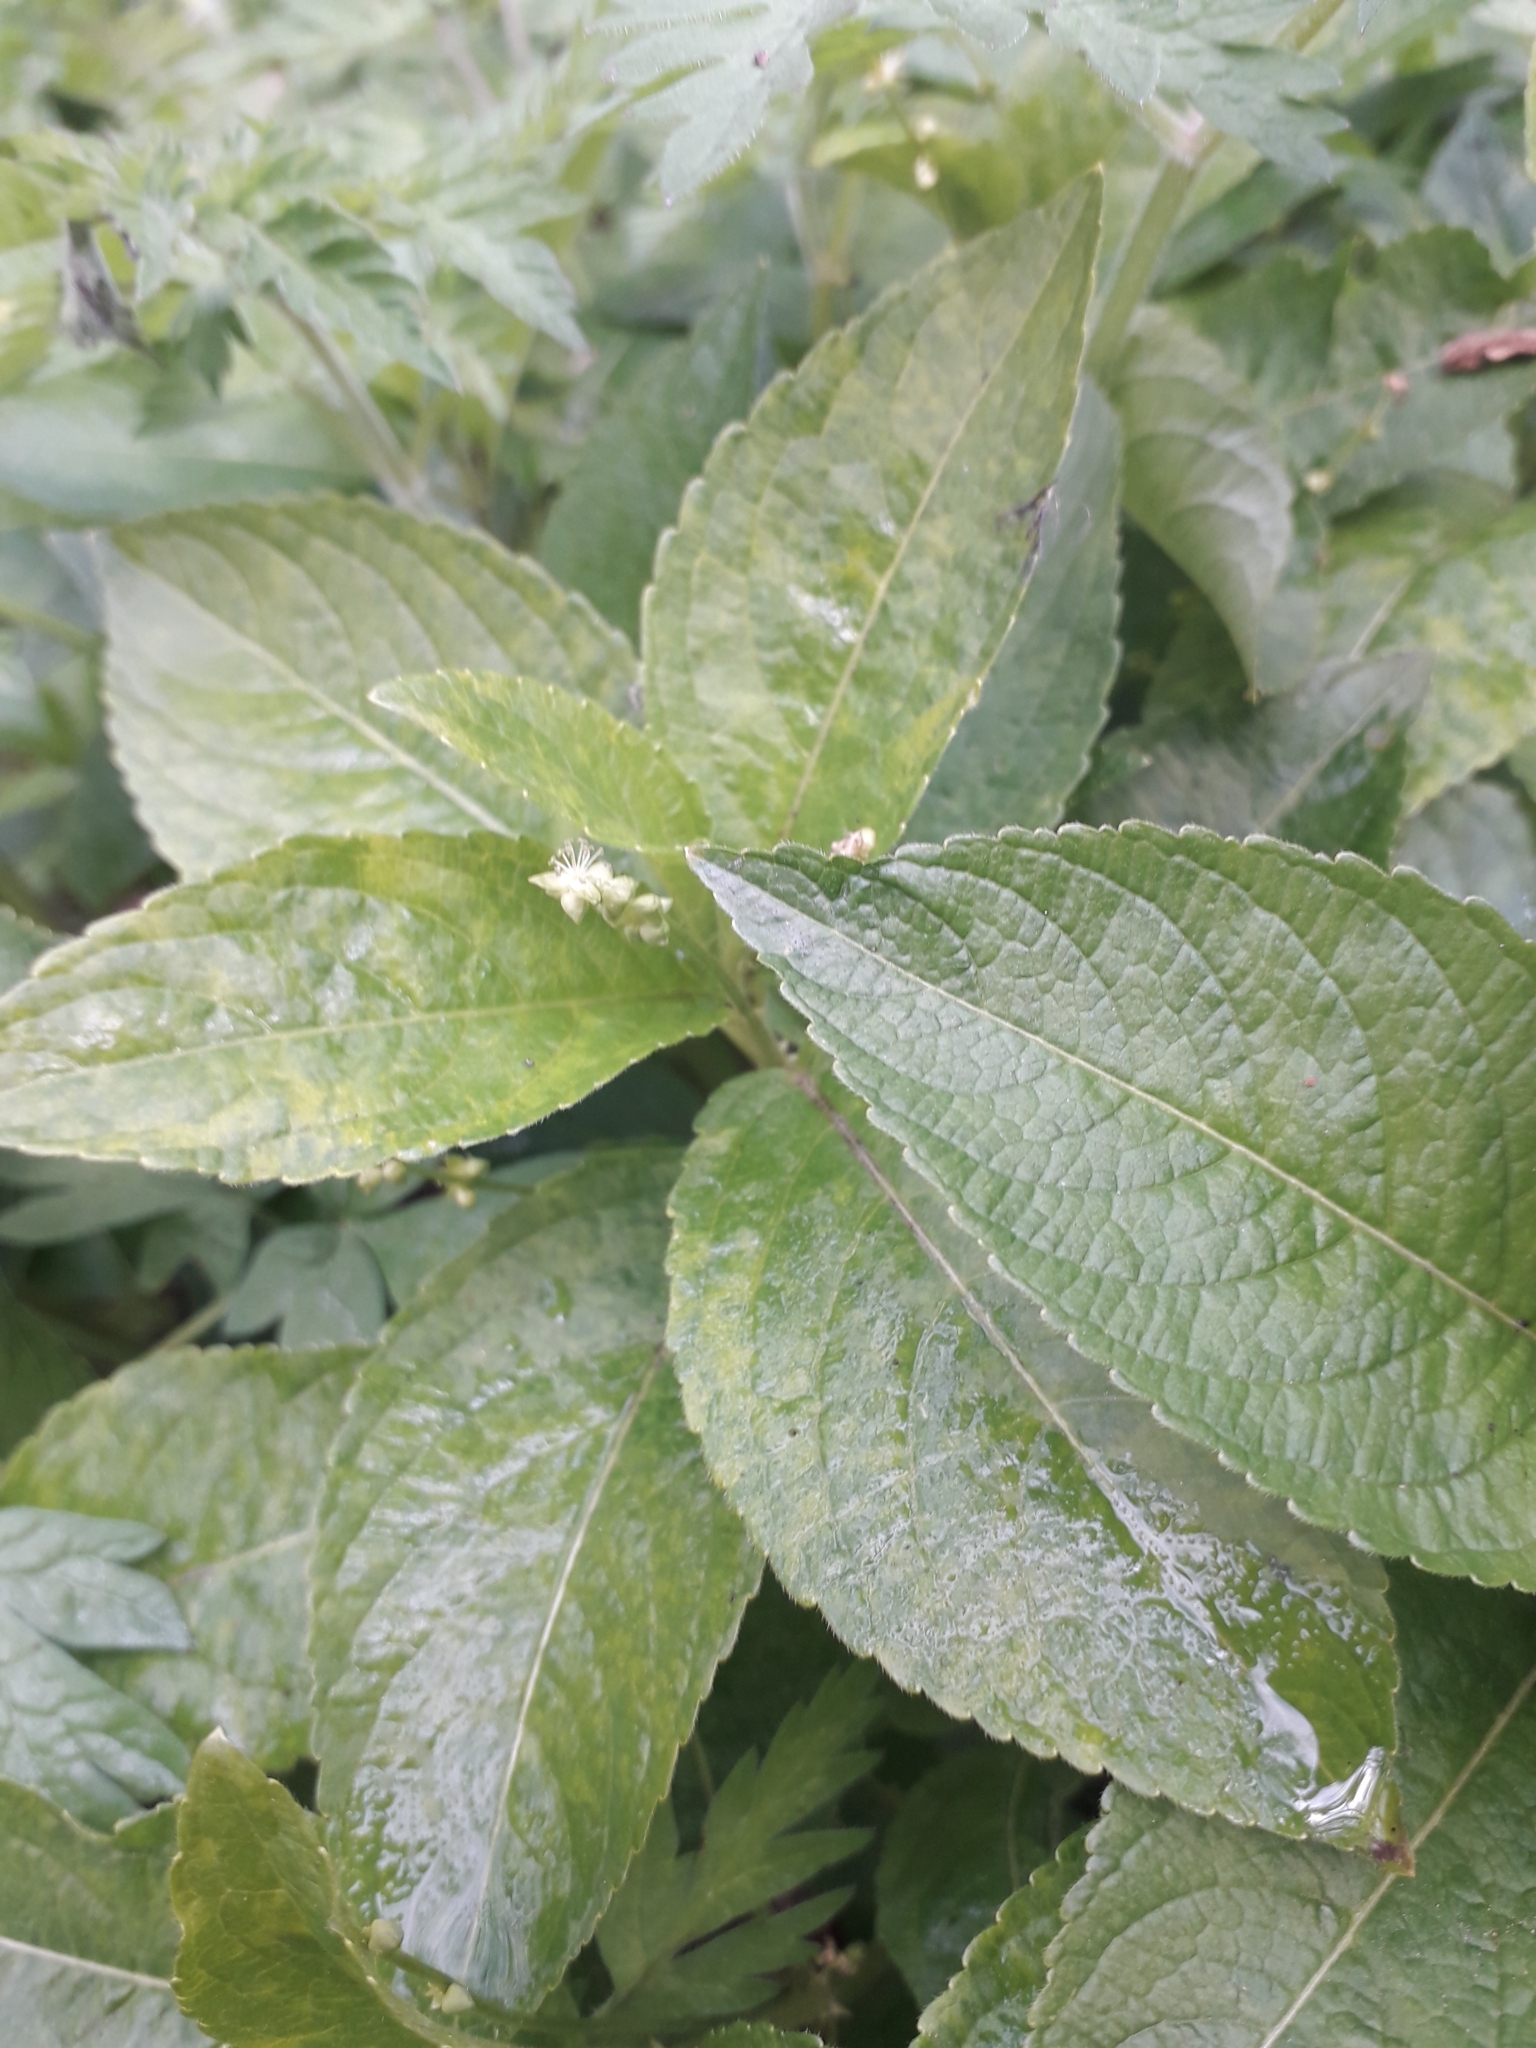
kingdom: Plantae
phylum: Tracheophyta
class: Magnoliopsida
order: Malpighiales
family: Euphorbiaceae
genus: Mercurialis
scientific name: Mercurialis perennis
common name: Dog mercury
